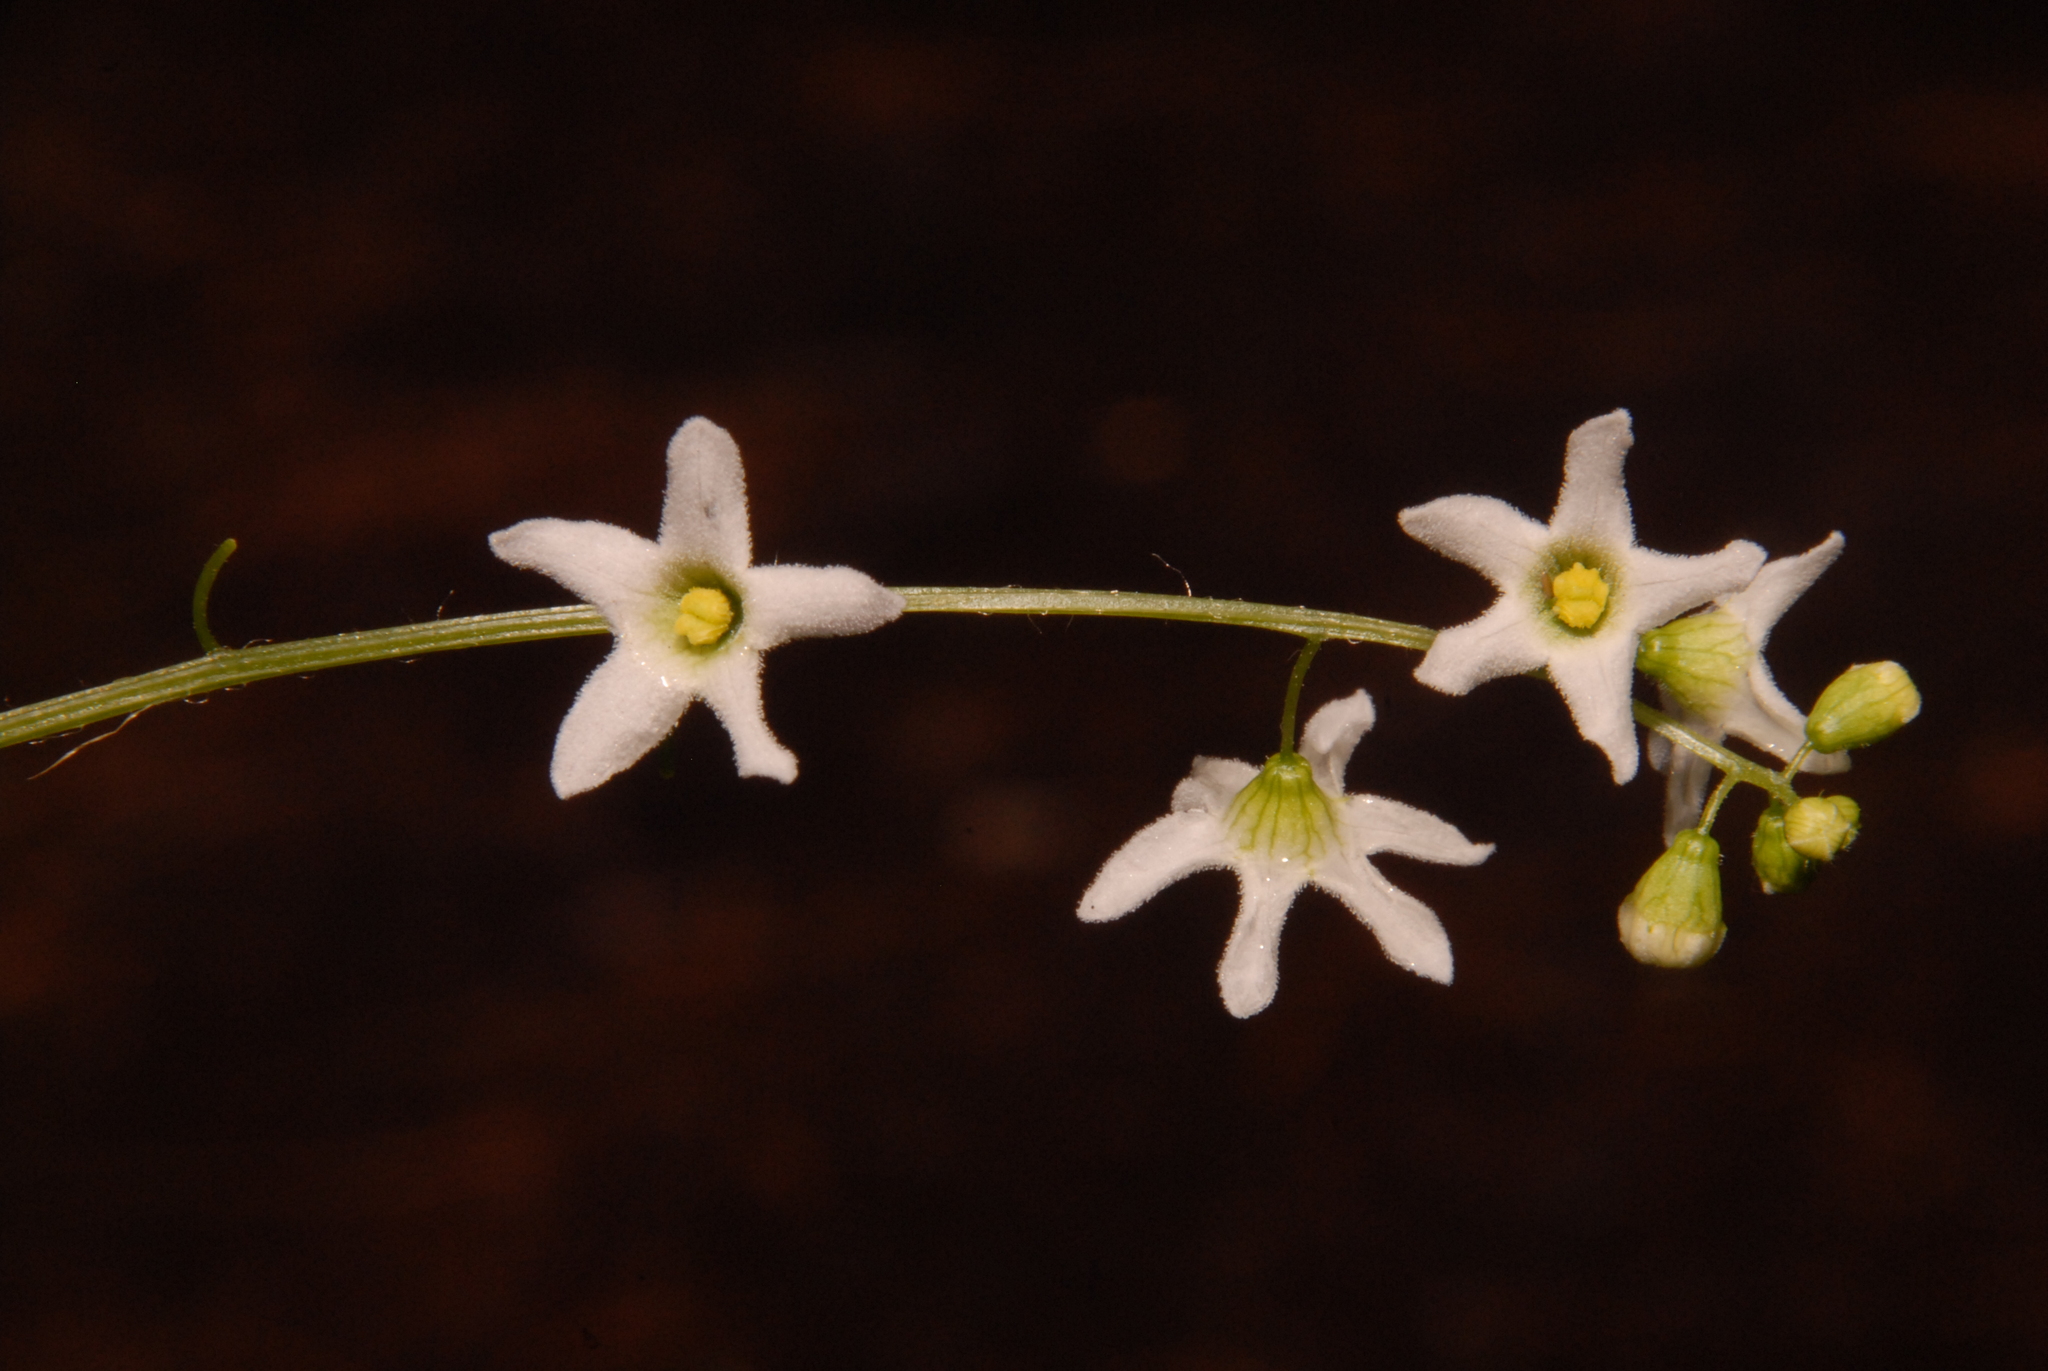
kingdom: Plantae
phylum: Tracheophyta
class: Magnoliopsida
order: Cucurbitales
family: Cucurbitaceae
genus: Marah
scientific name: Marah oregana
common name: Coastal manroot
